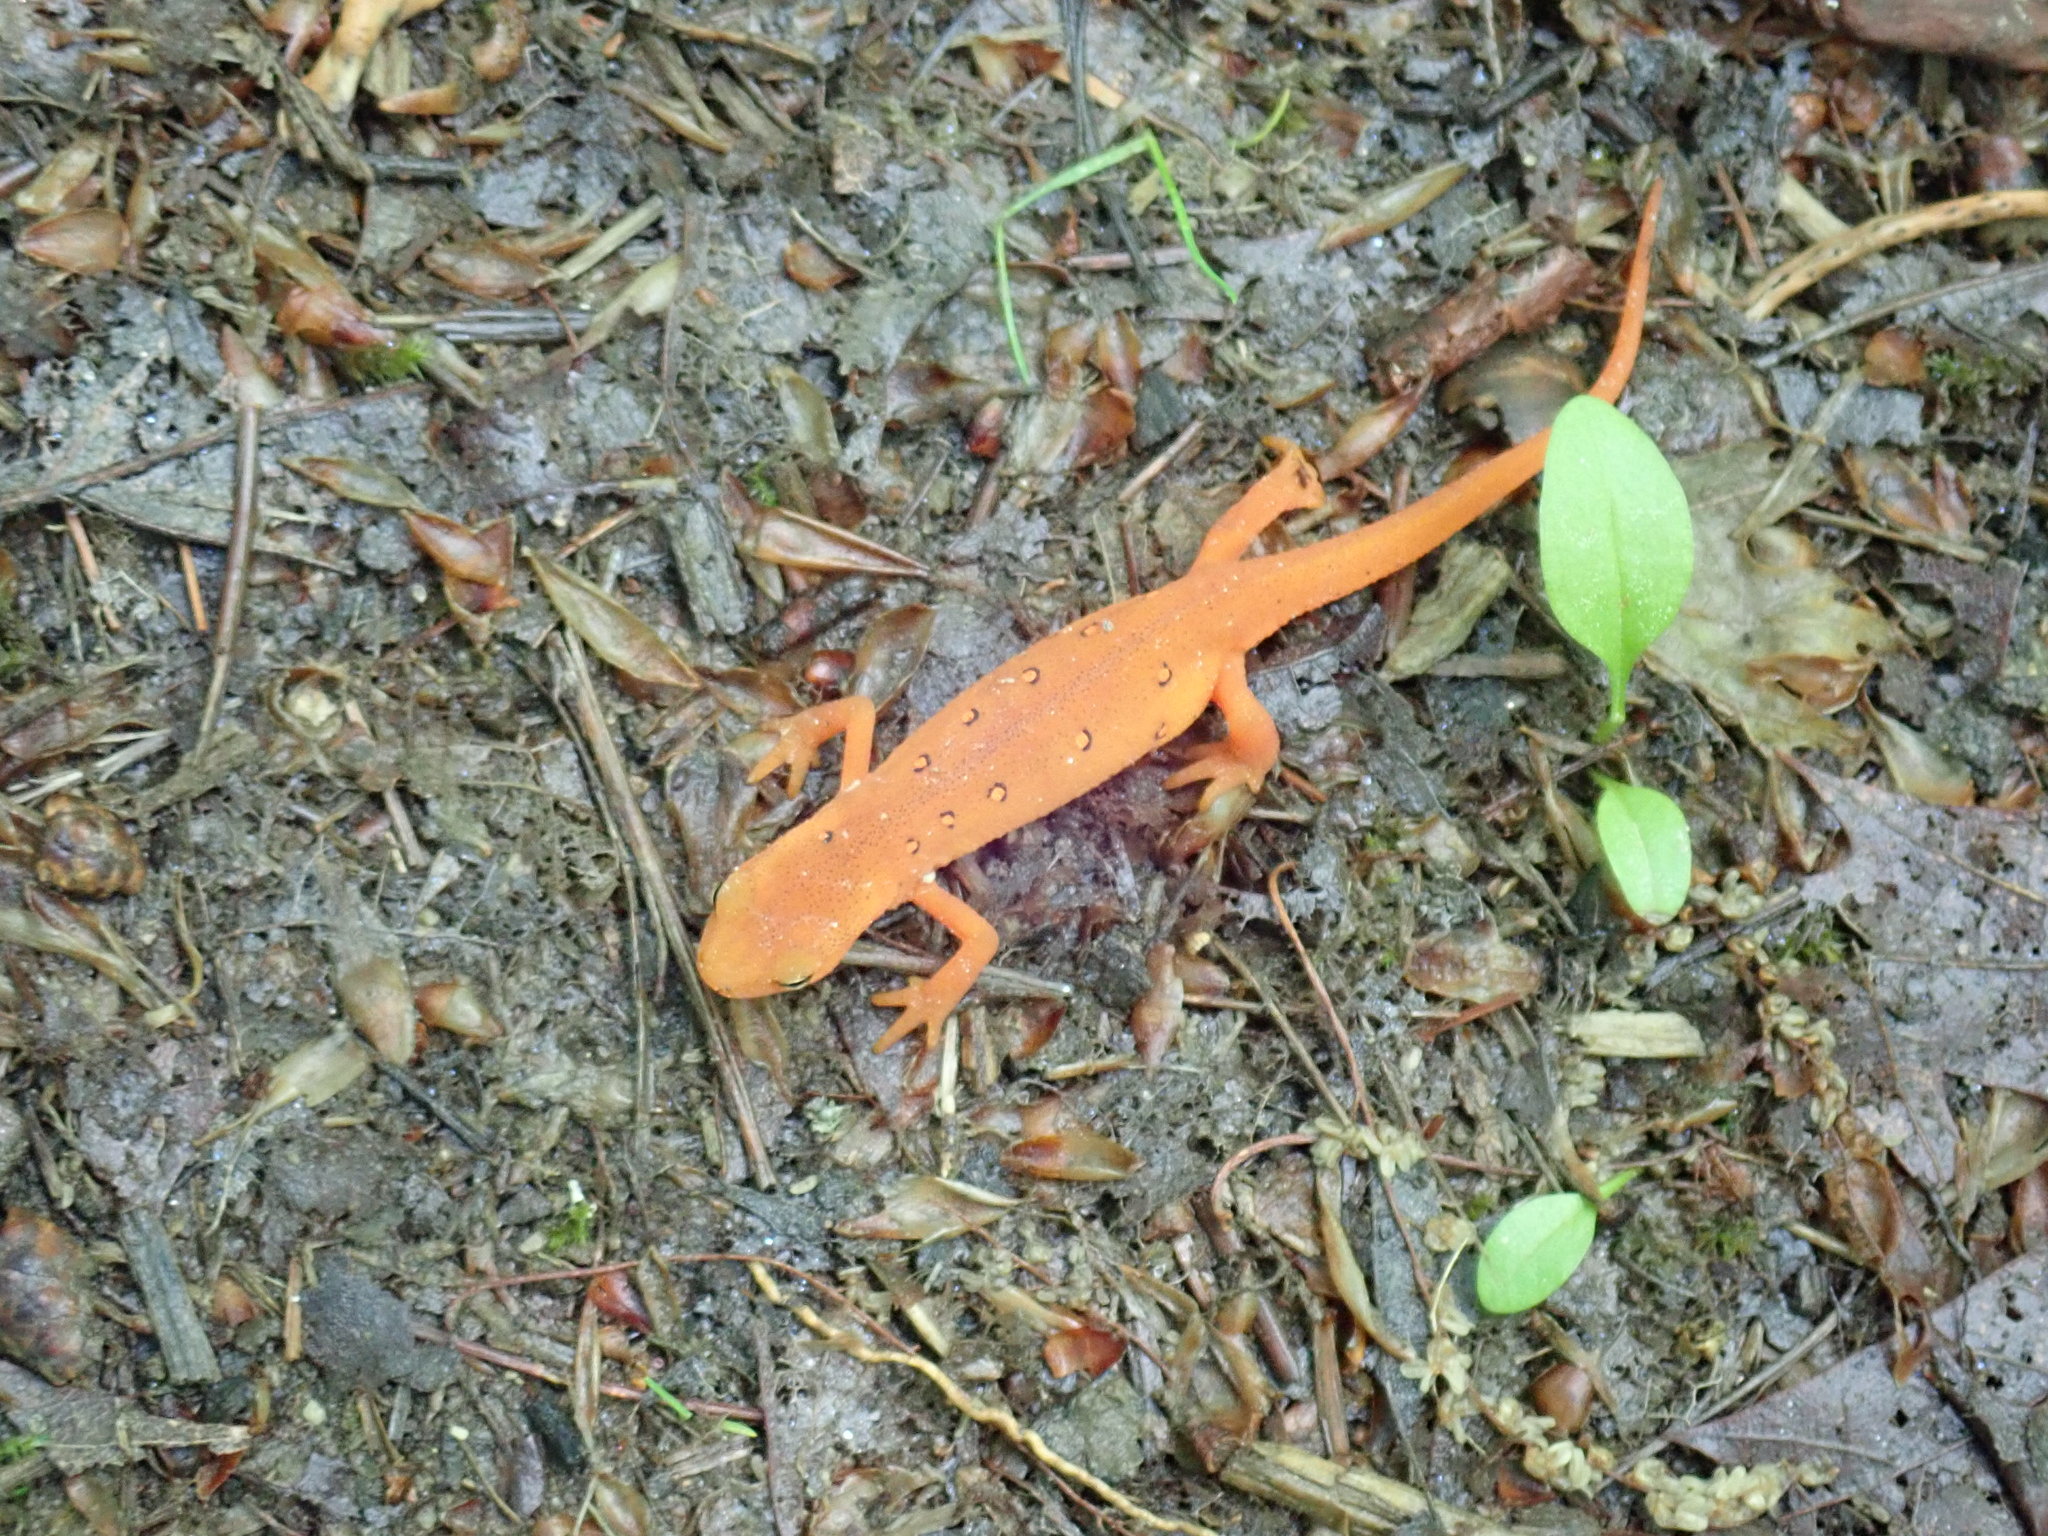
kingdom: Animalia
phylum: Chordata
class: Amphibia
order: Caudata
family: Salamandridae
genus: Notophthalmus
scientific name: Notophthalmus viridescens
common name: Eastern newt
